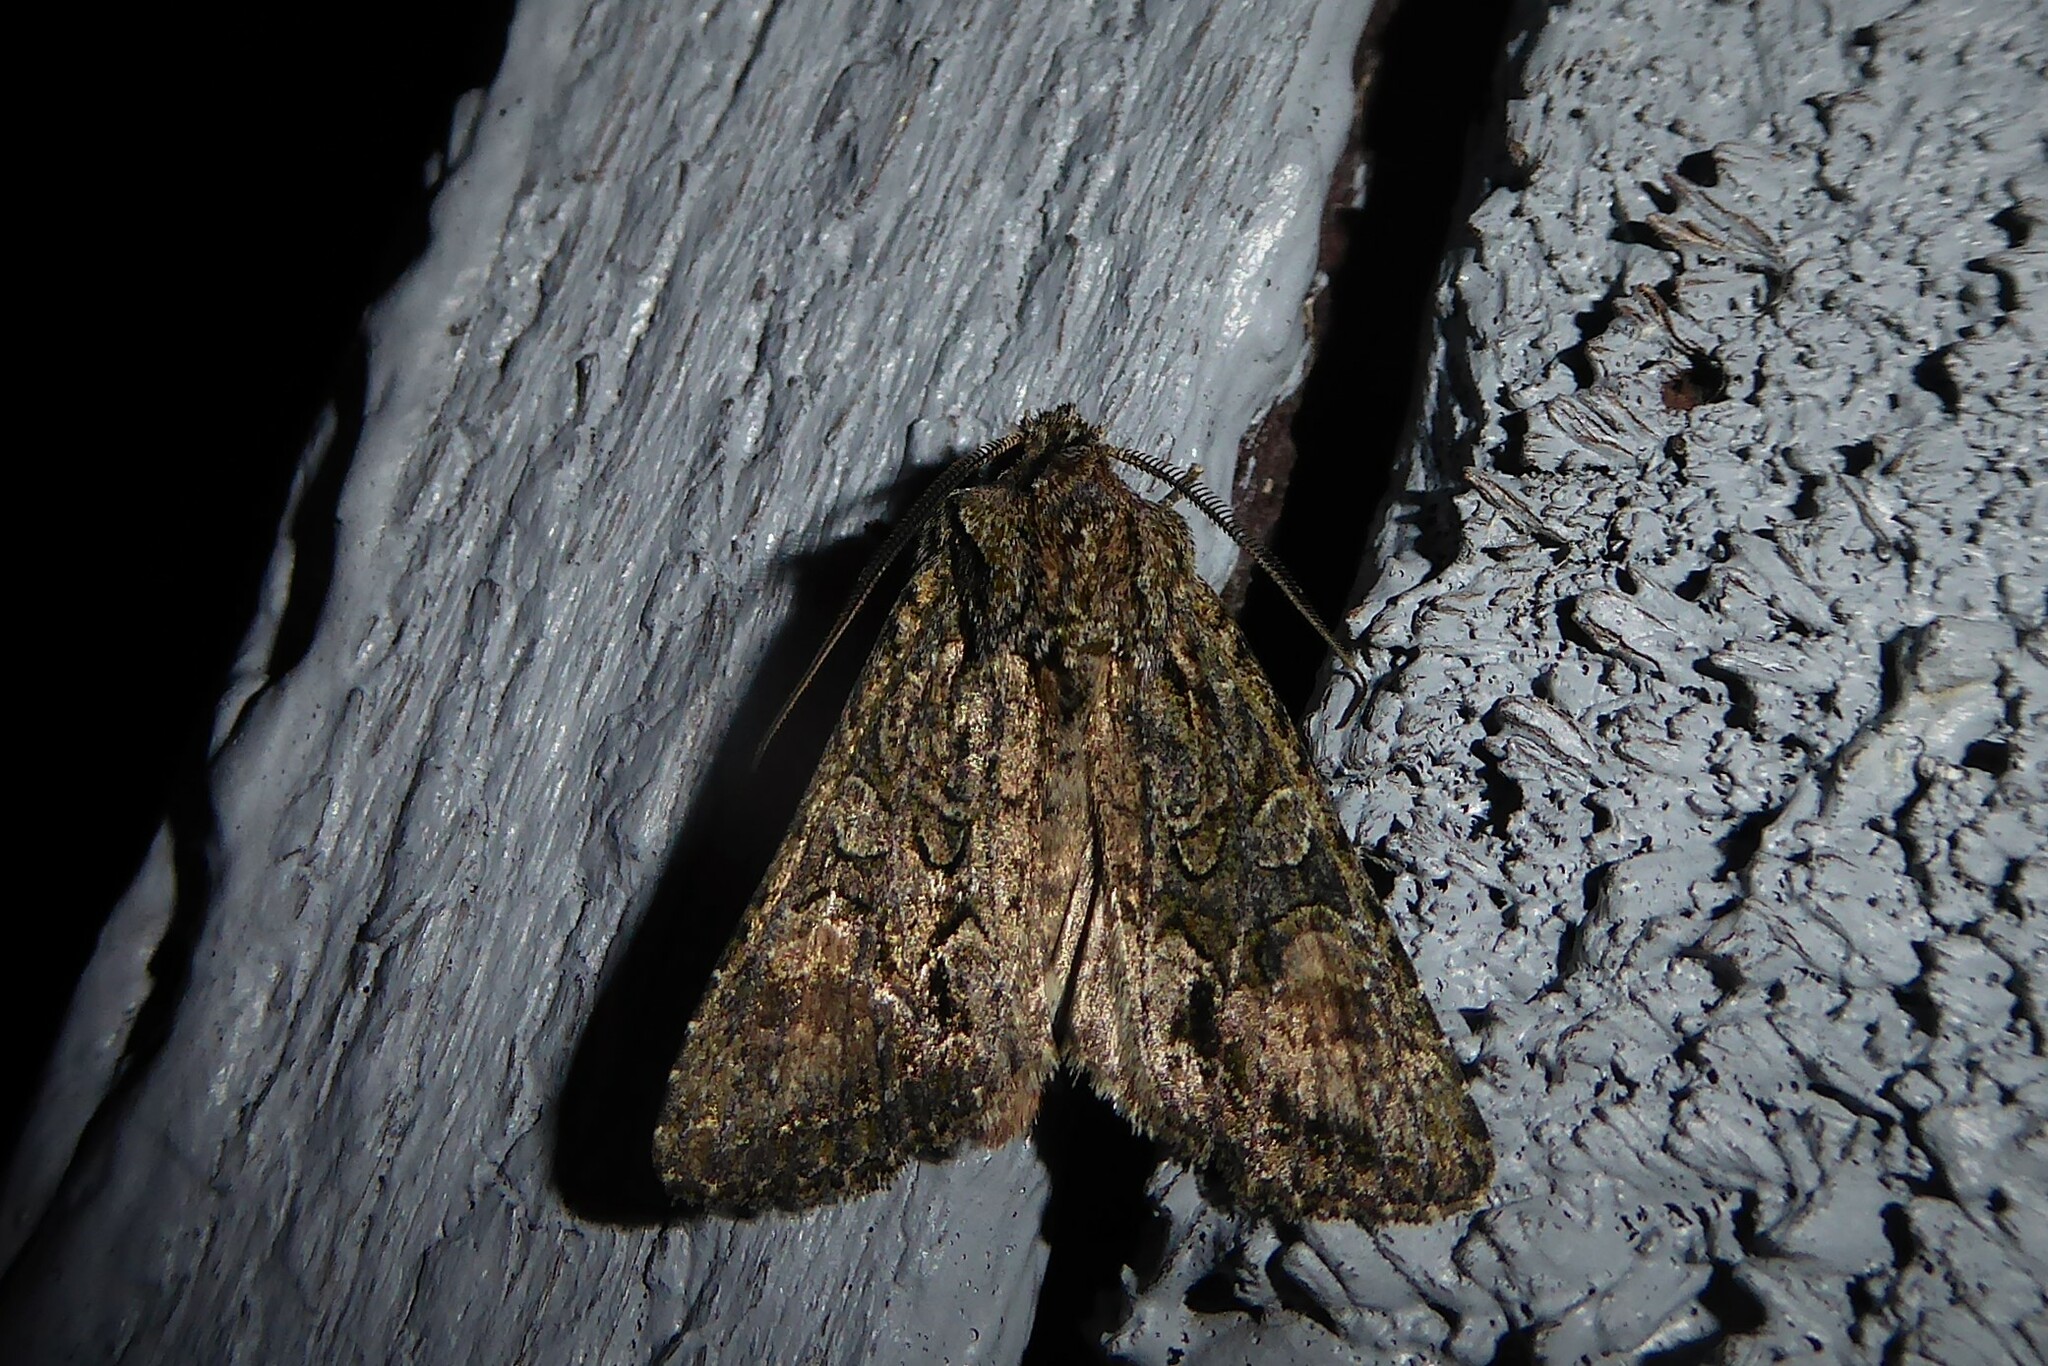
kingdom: Animalia
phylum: Arthropoda
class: Insecta
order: Lepidoptera
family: Noctuidae
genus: Ichneutica
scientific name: Ichneutica mutans
